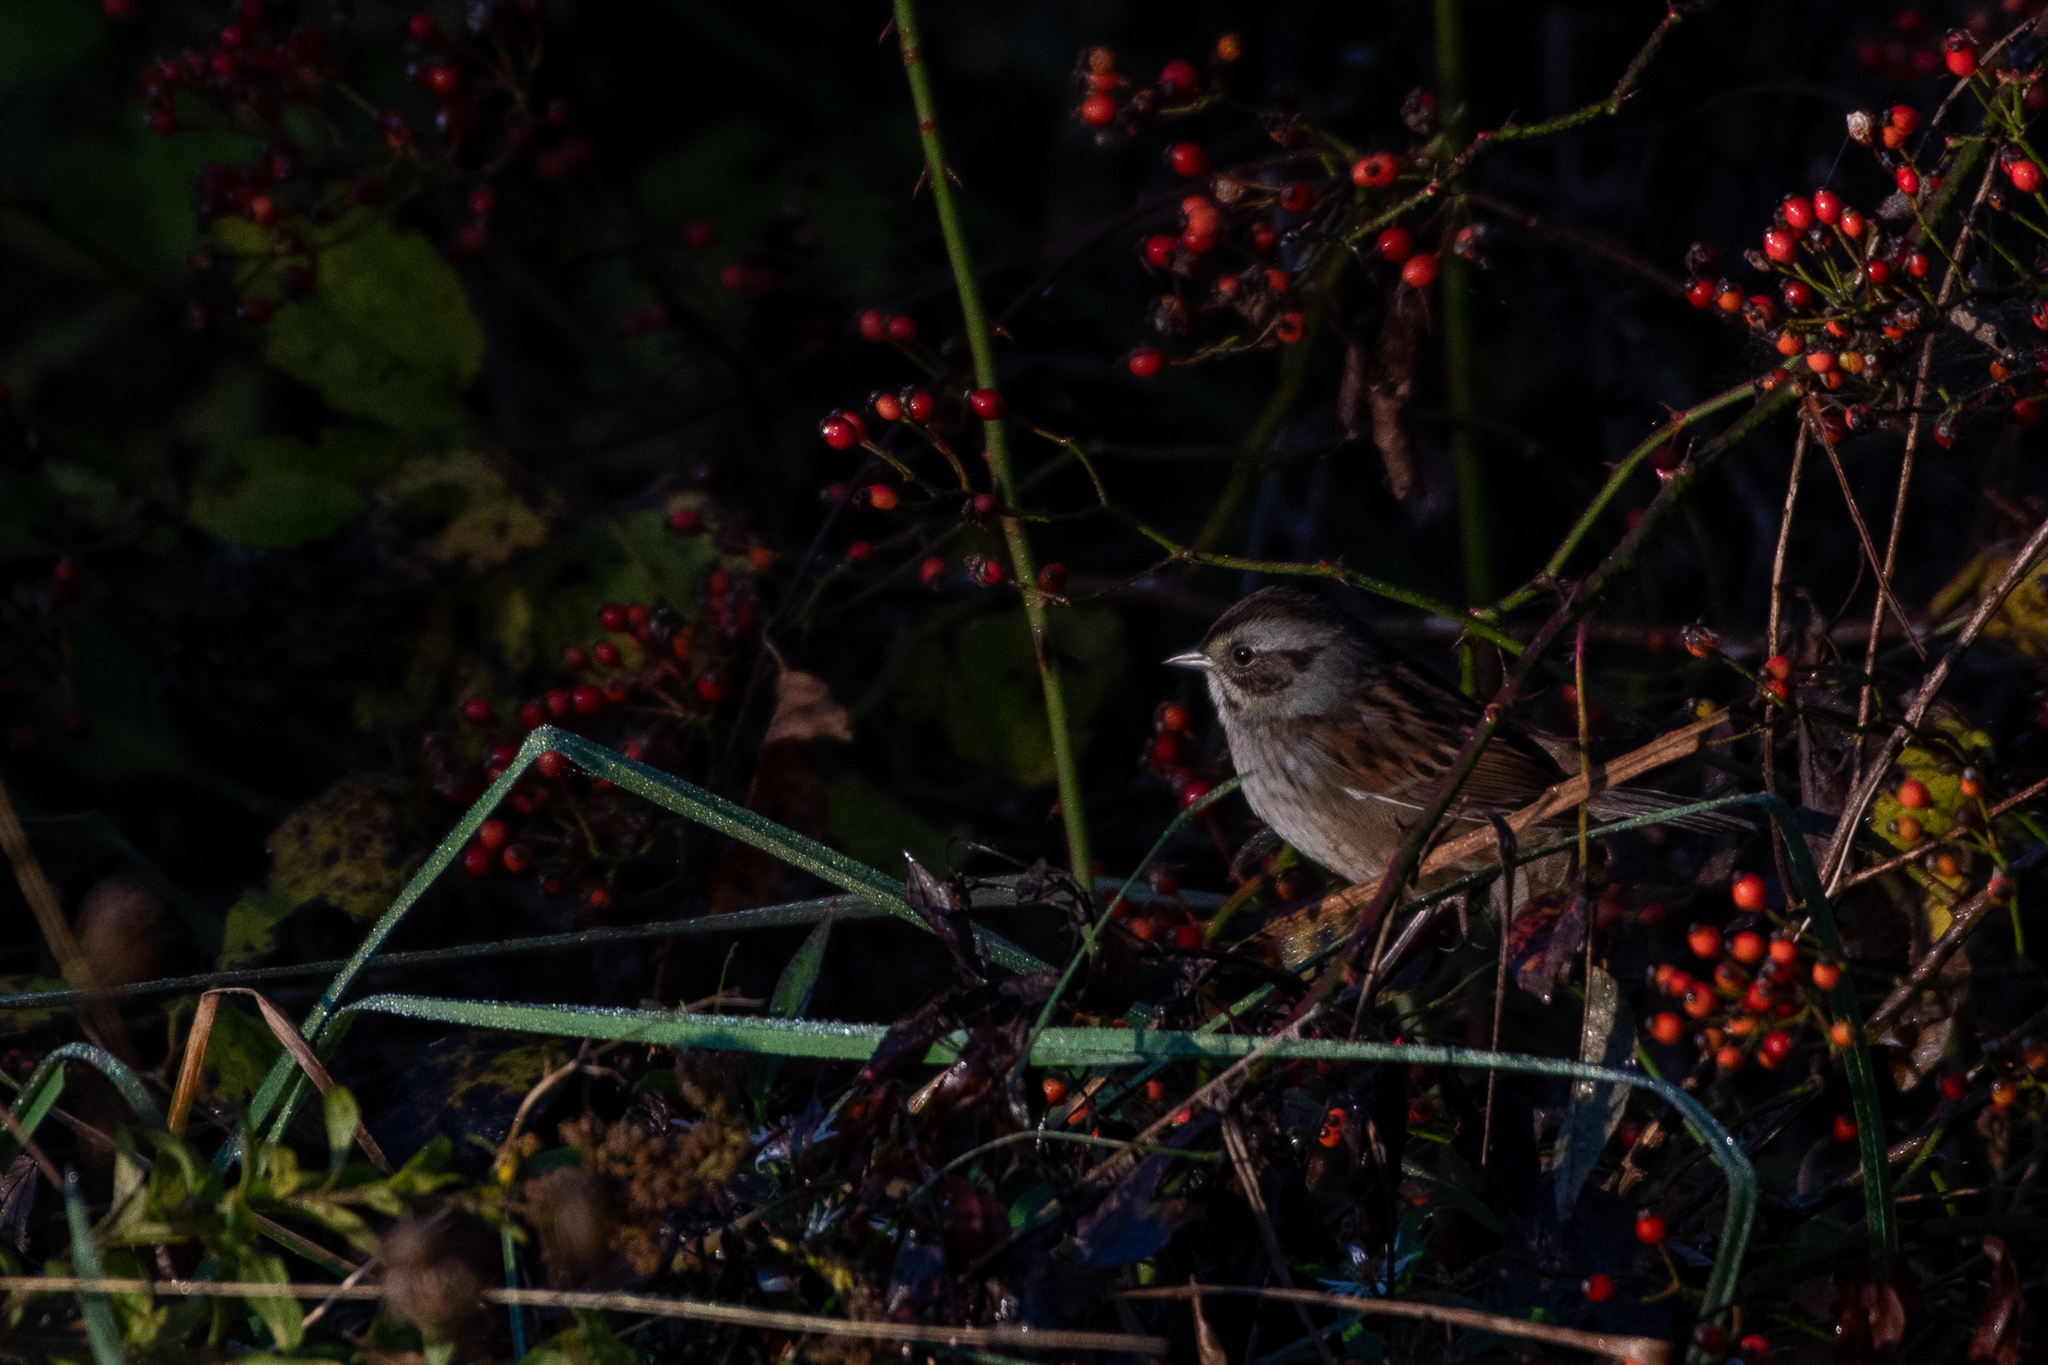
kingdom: Animalia
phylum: Chordata
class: Aves
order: Passeriformes
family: Passerellidae
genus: Melospiza
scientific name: Melospiza georgiana
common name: Swamp sparrow
